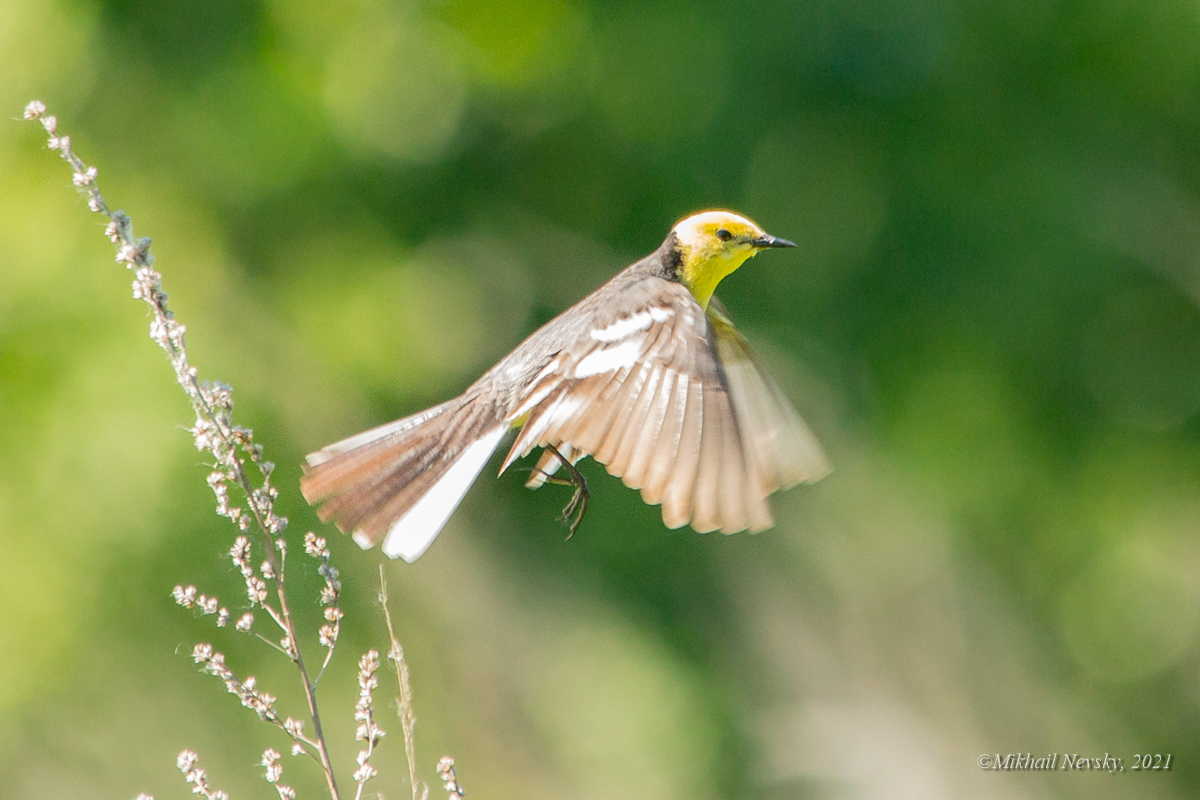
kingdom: Animalia
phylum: Chordata
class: Aves
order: Passeriformes
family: Motacillidae
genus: Motacilla
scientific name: Motacilla citreola
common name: Citrine wagtail
